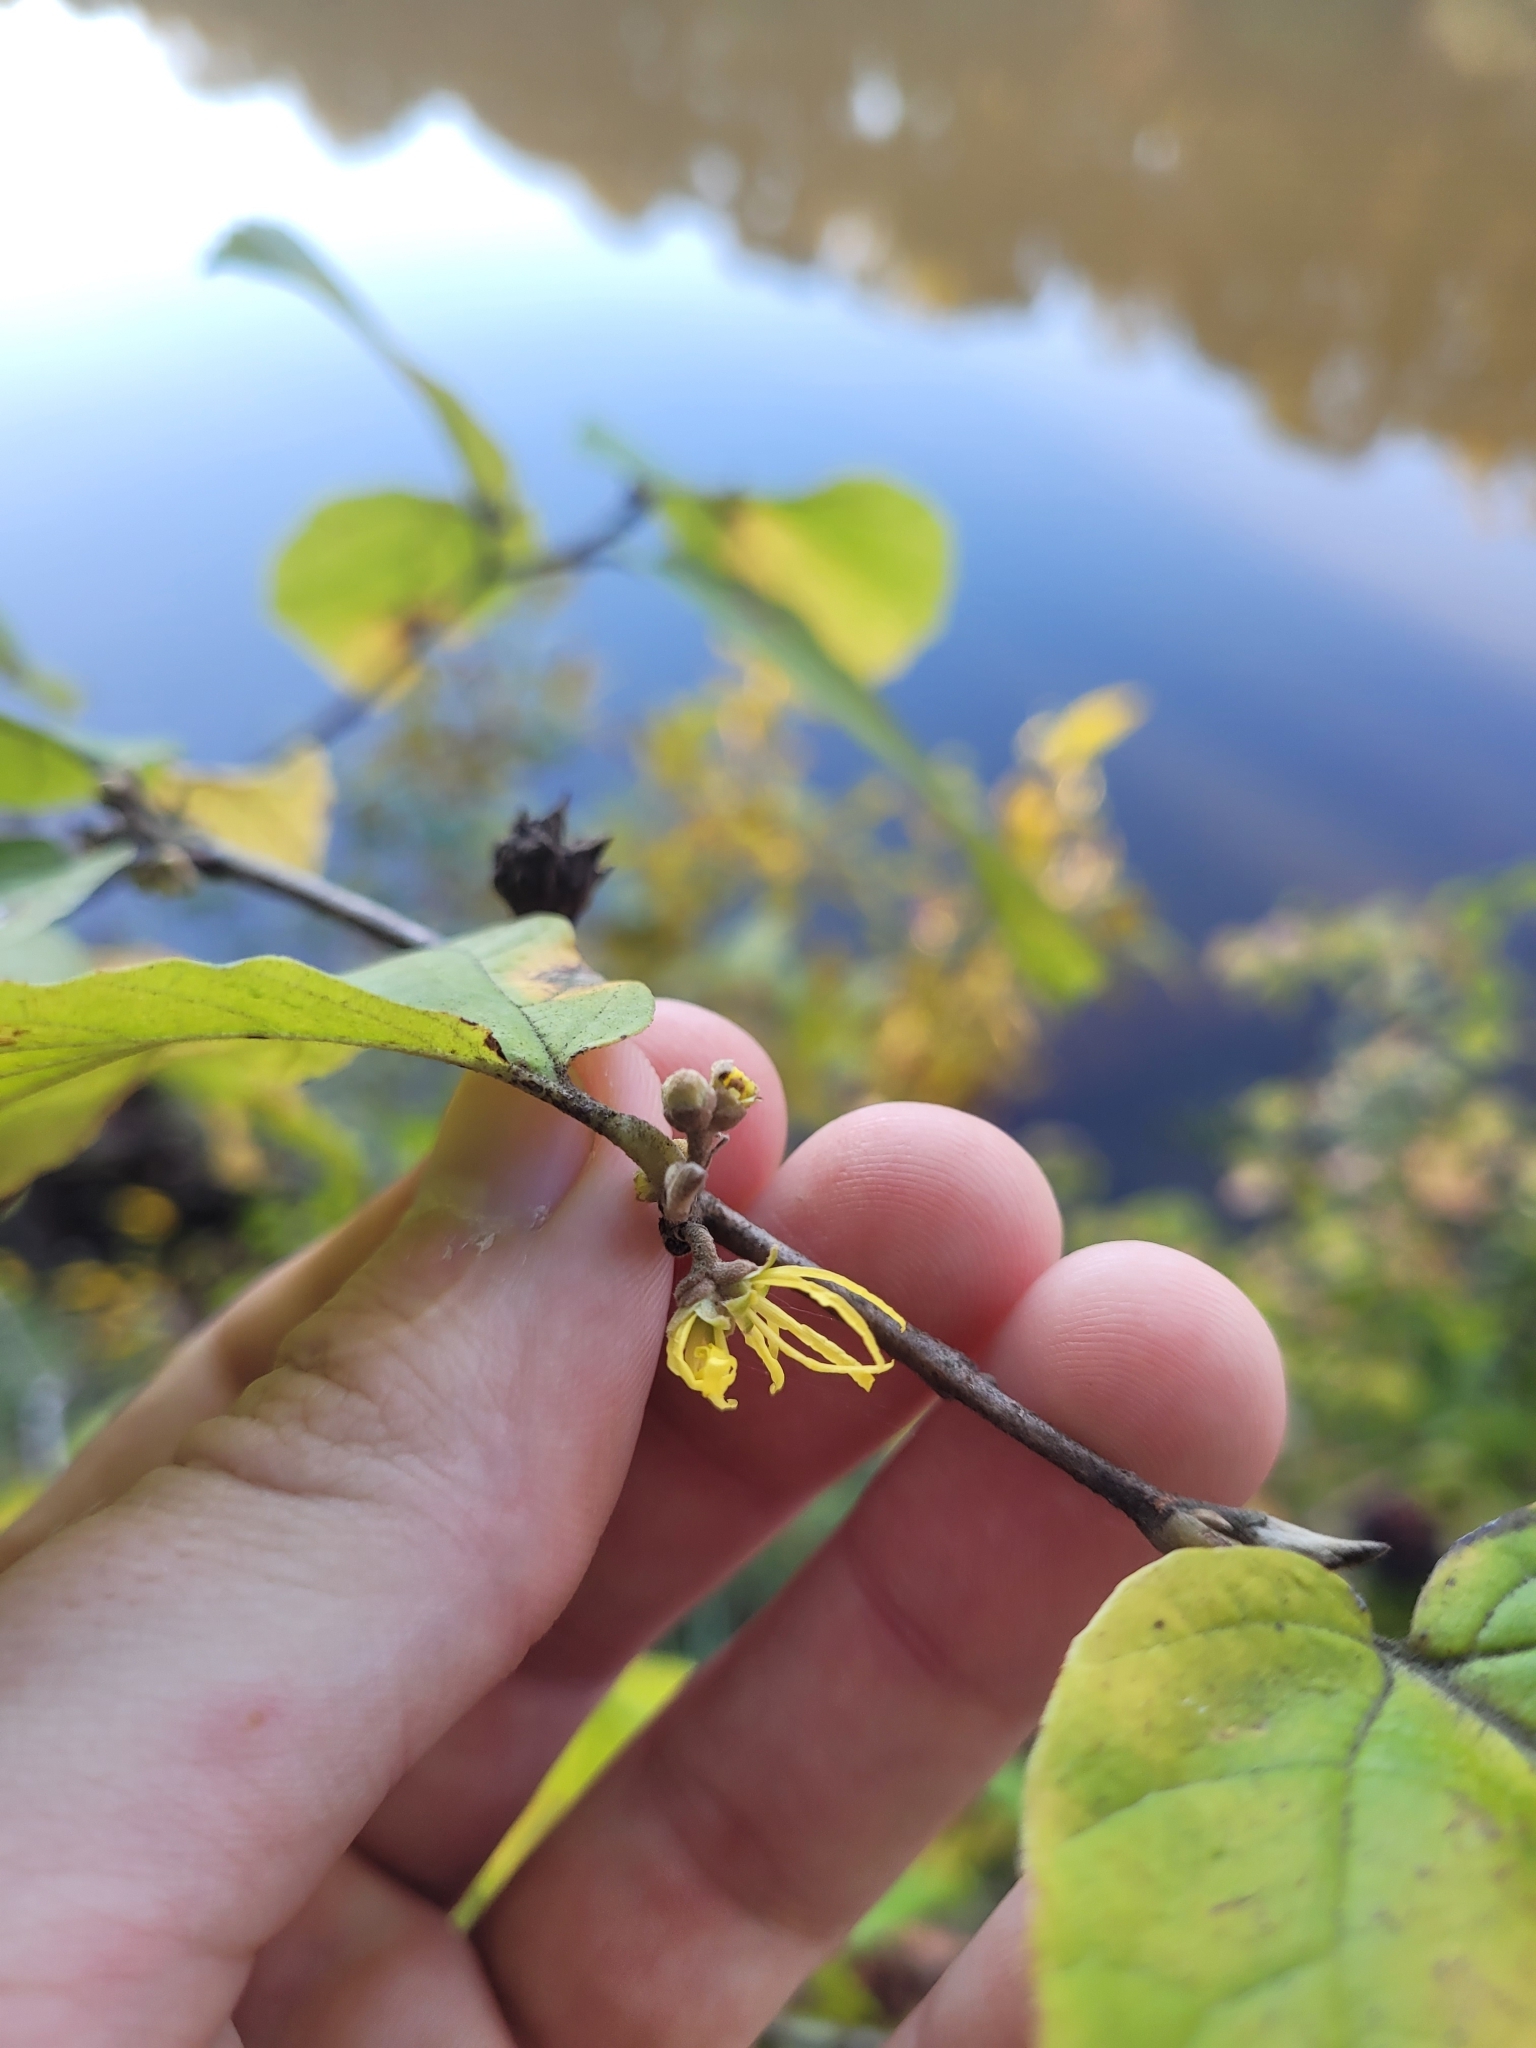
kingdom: Plantae
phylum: Tracheophyta
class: Magnoliopsida
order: Saxifragales
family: Hamamelidaceae
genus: Hamamelis
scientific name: Hamamelis virginiana
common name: Witch-hazel
